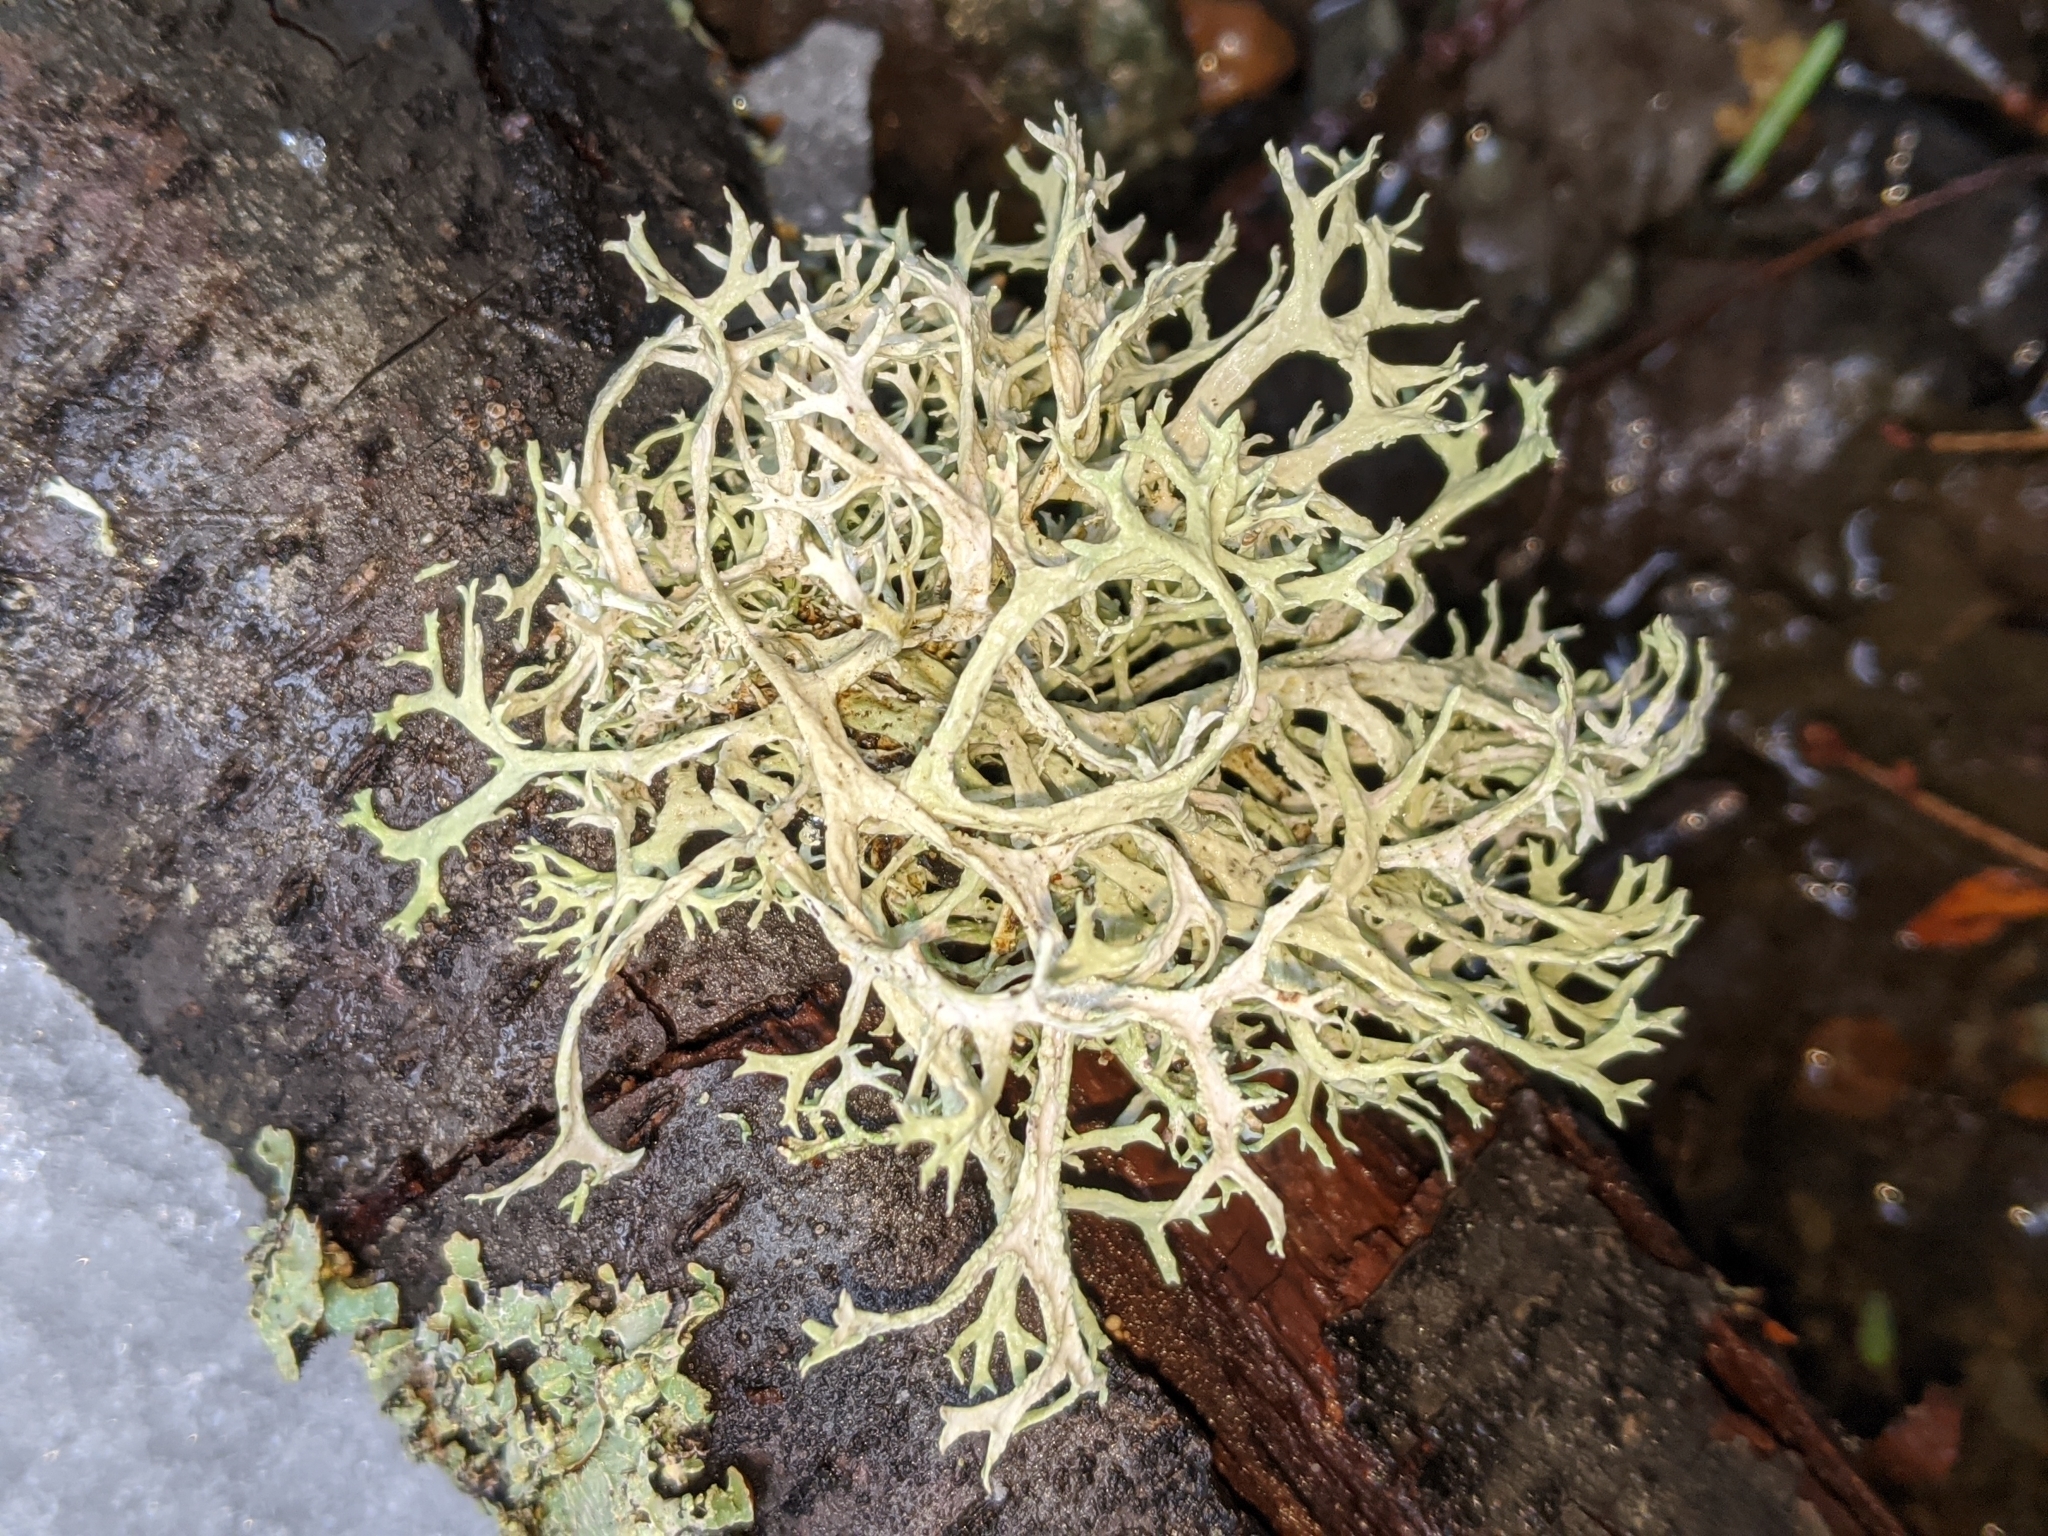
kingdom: Fungi
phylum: Ascomycota
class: Lecanoromycetes
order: Lecanorales
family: Parmeliaceae
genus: Evernia
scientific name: Evernia prunastri
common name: Oak moss
